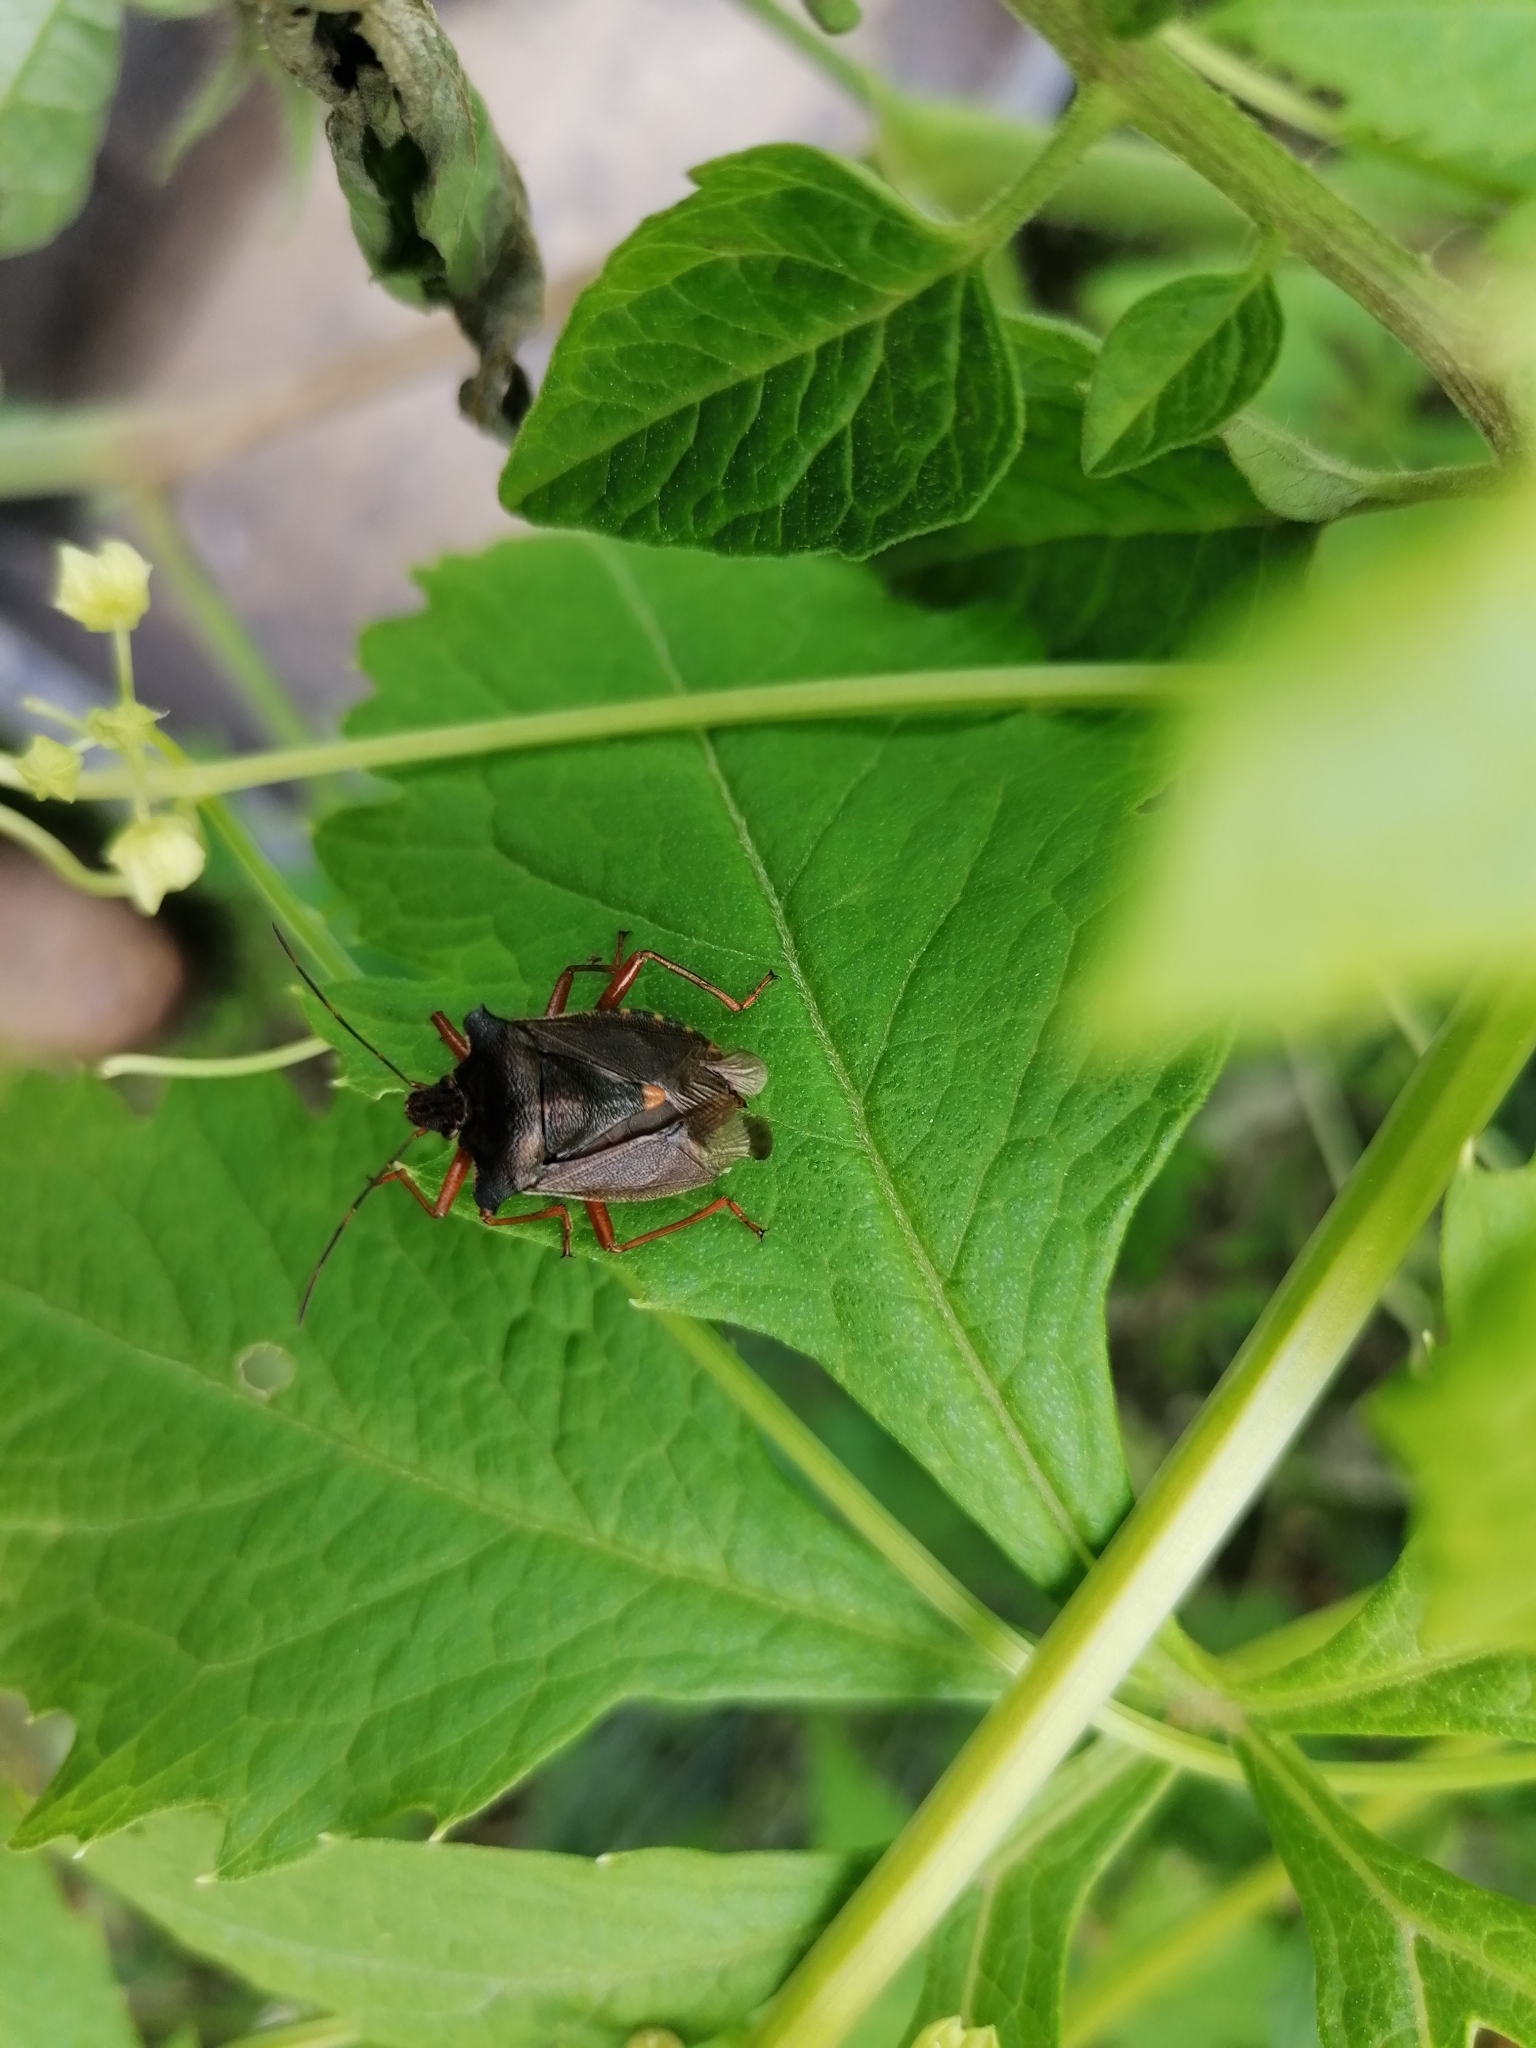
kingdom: Animalia
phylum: Arthropoda
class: Insecta
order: Hemiptera
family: Pentatomidae
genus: Pentatoma
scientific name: Pentatoma rufipes
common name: Forest bug
